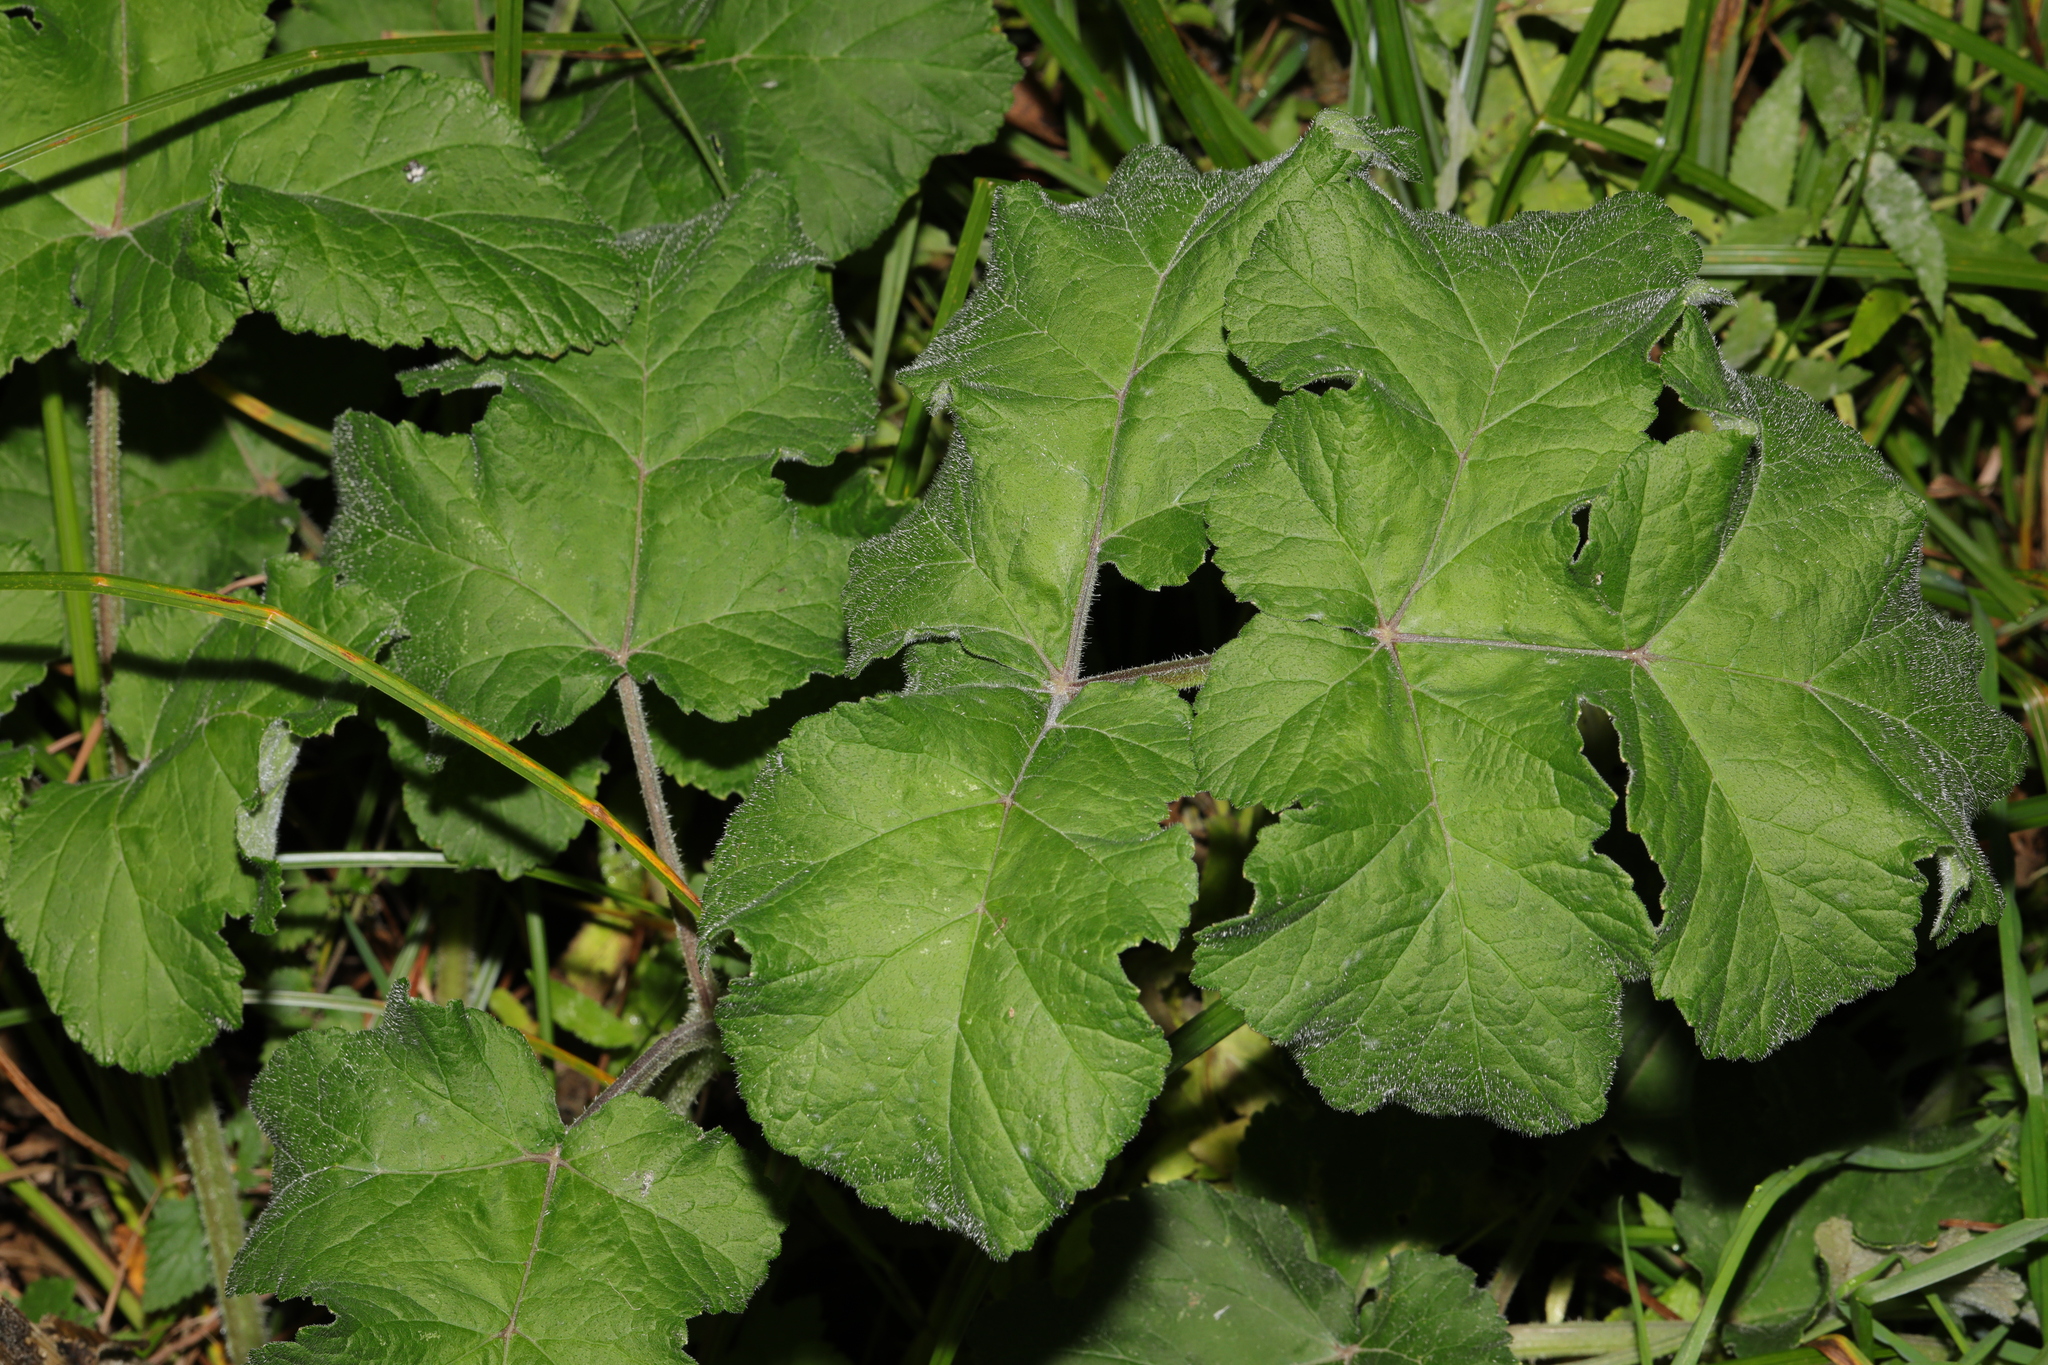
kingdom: Plantae
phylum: Tracheophyta
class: Magnoliopsida
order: Apiales
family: Apiaceae
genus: Heracleum
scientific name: Heracleum sphondylium
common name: Hogweed
